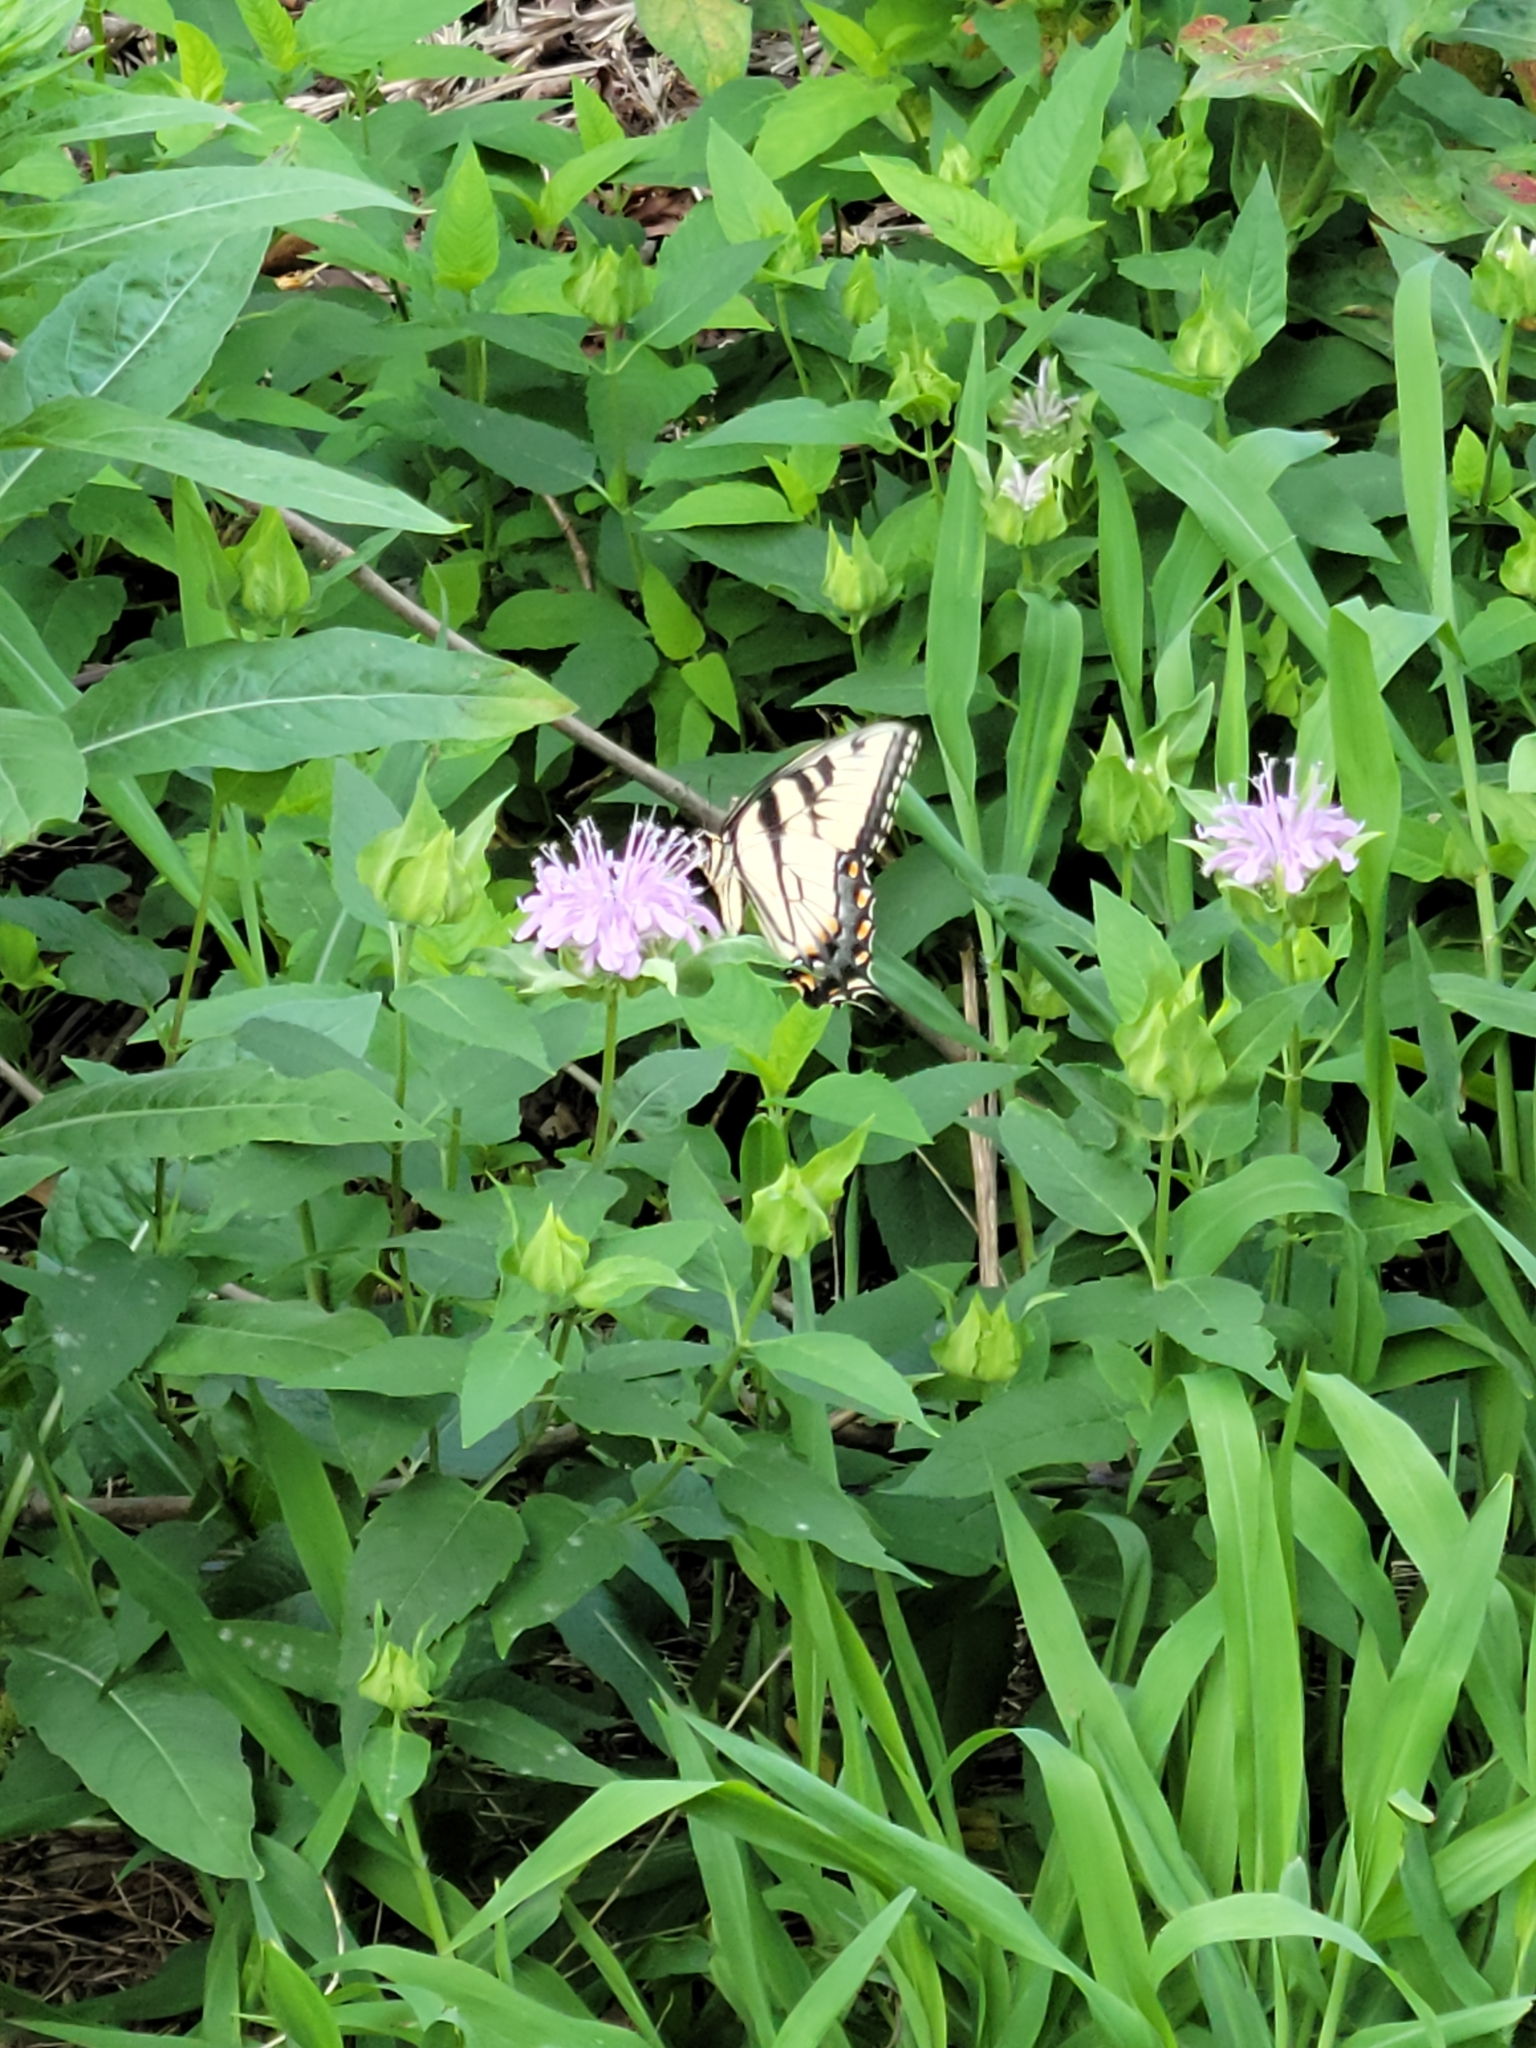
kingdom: Animalia
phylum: Arthropoda
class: Insecta
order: Lepidoptera
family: Papilionidae
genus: Papilio
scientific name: Papilio glaucus
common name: Tiger swallowtail
